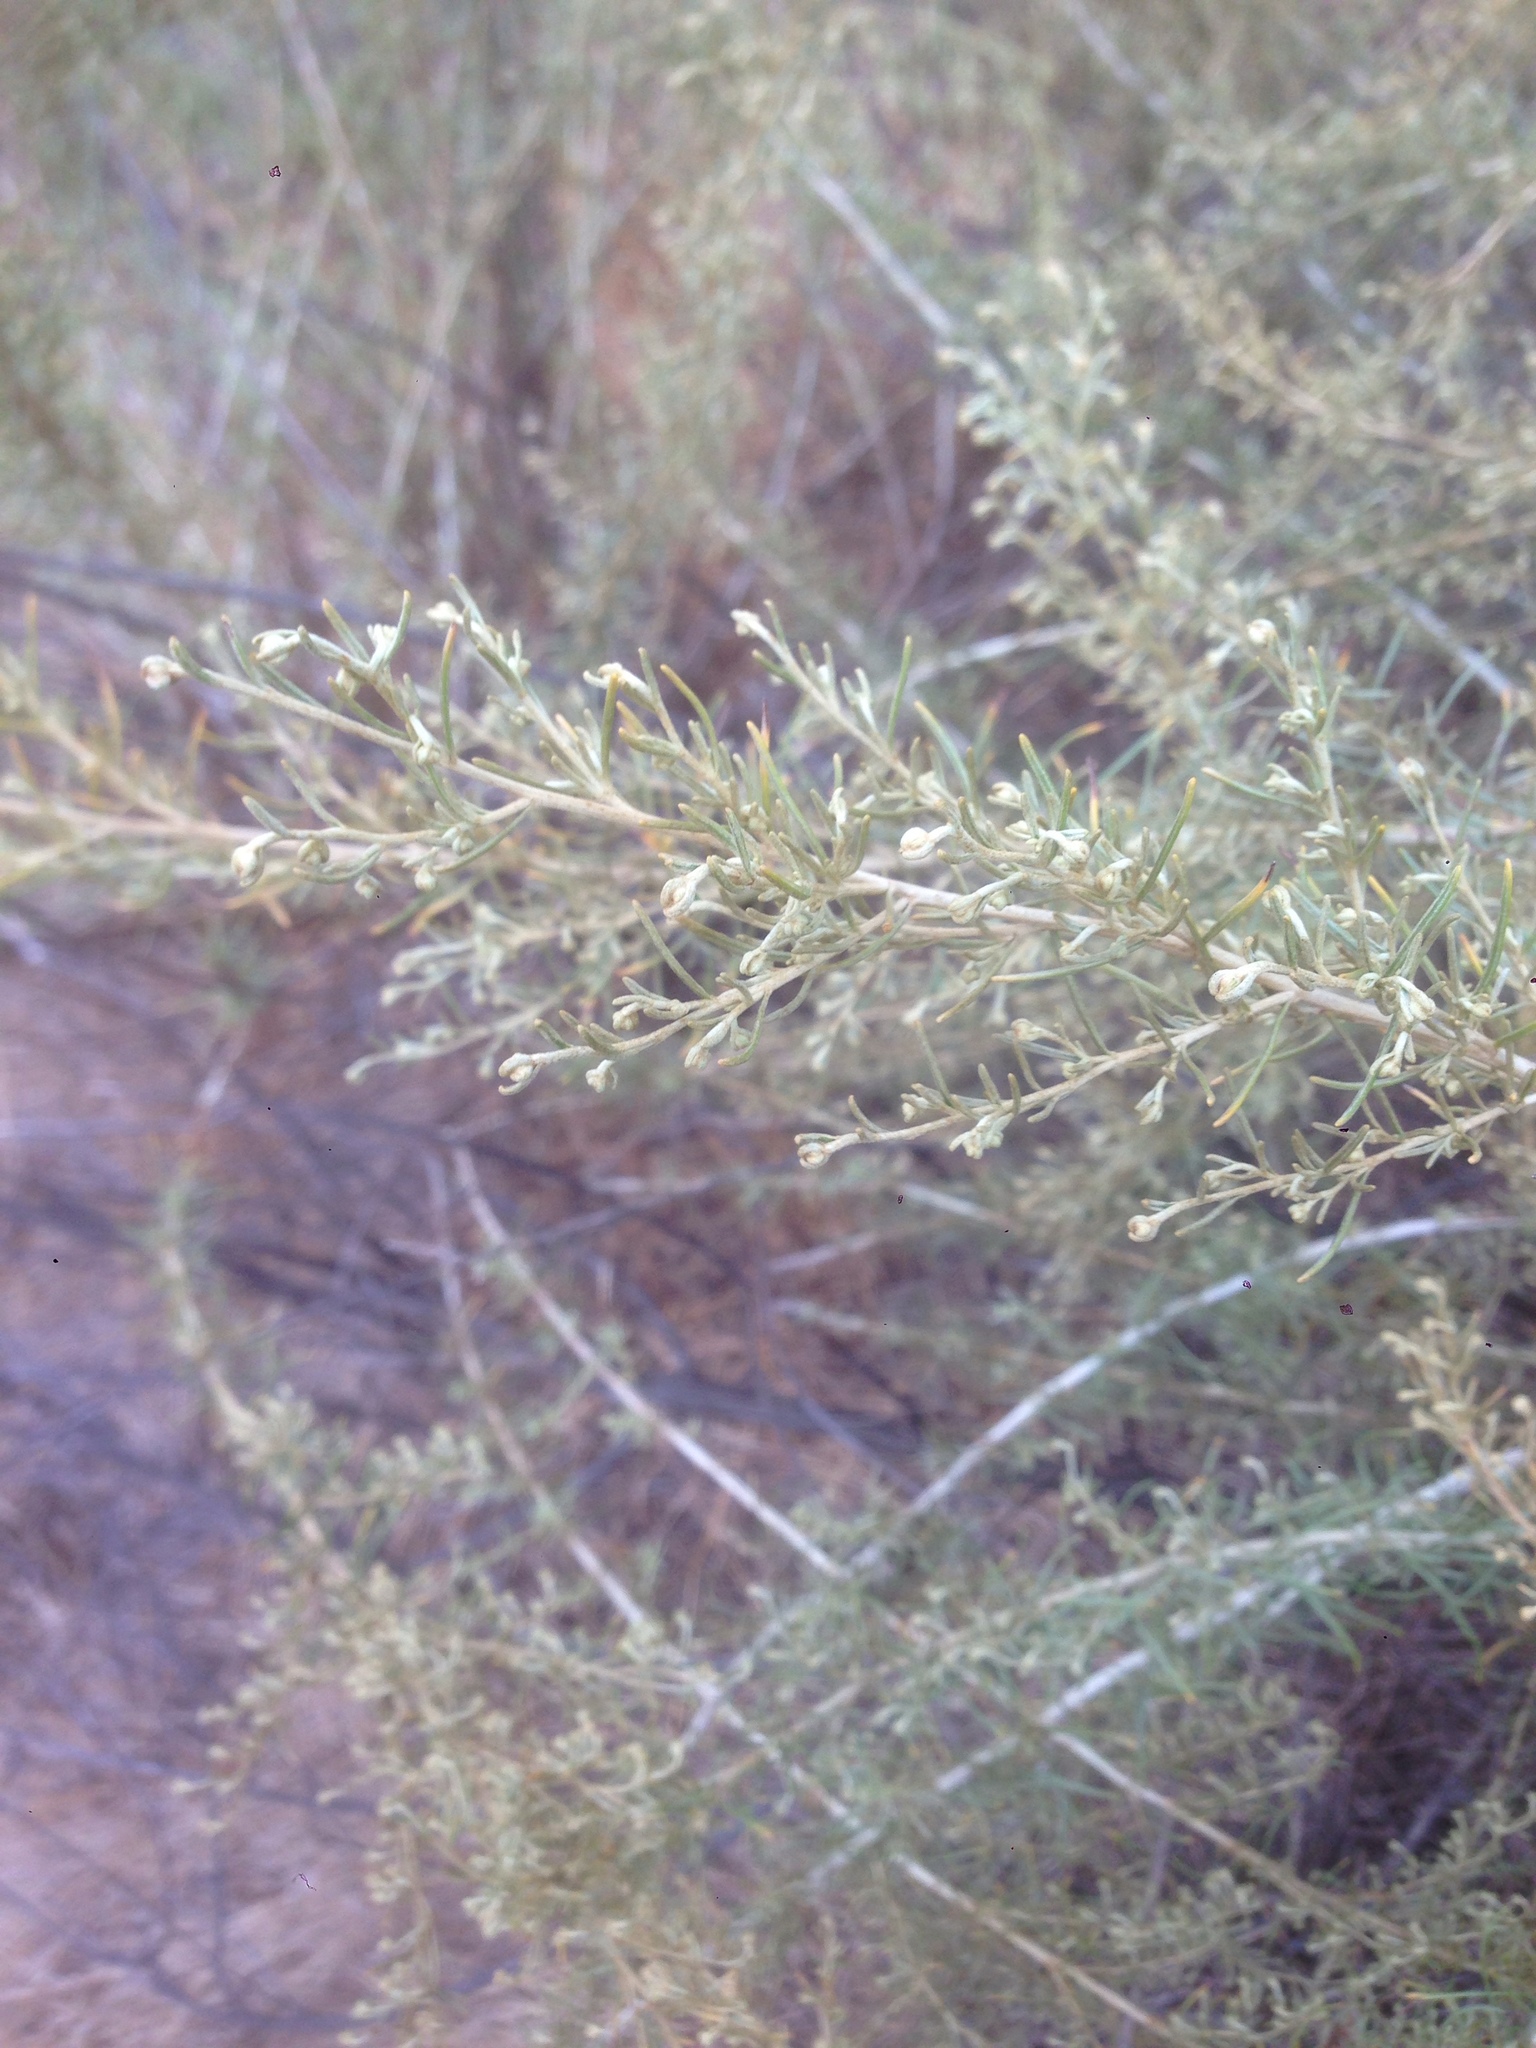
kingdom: Plantae
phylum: Tracheophyta
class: Magnoliopsida
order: Asterales
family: Asteraceae
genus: Artemisia
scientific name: Artemisia californica
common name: California sagebrush
